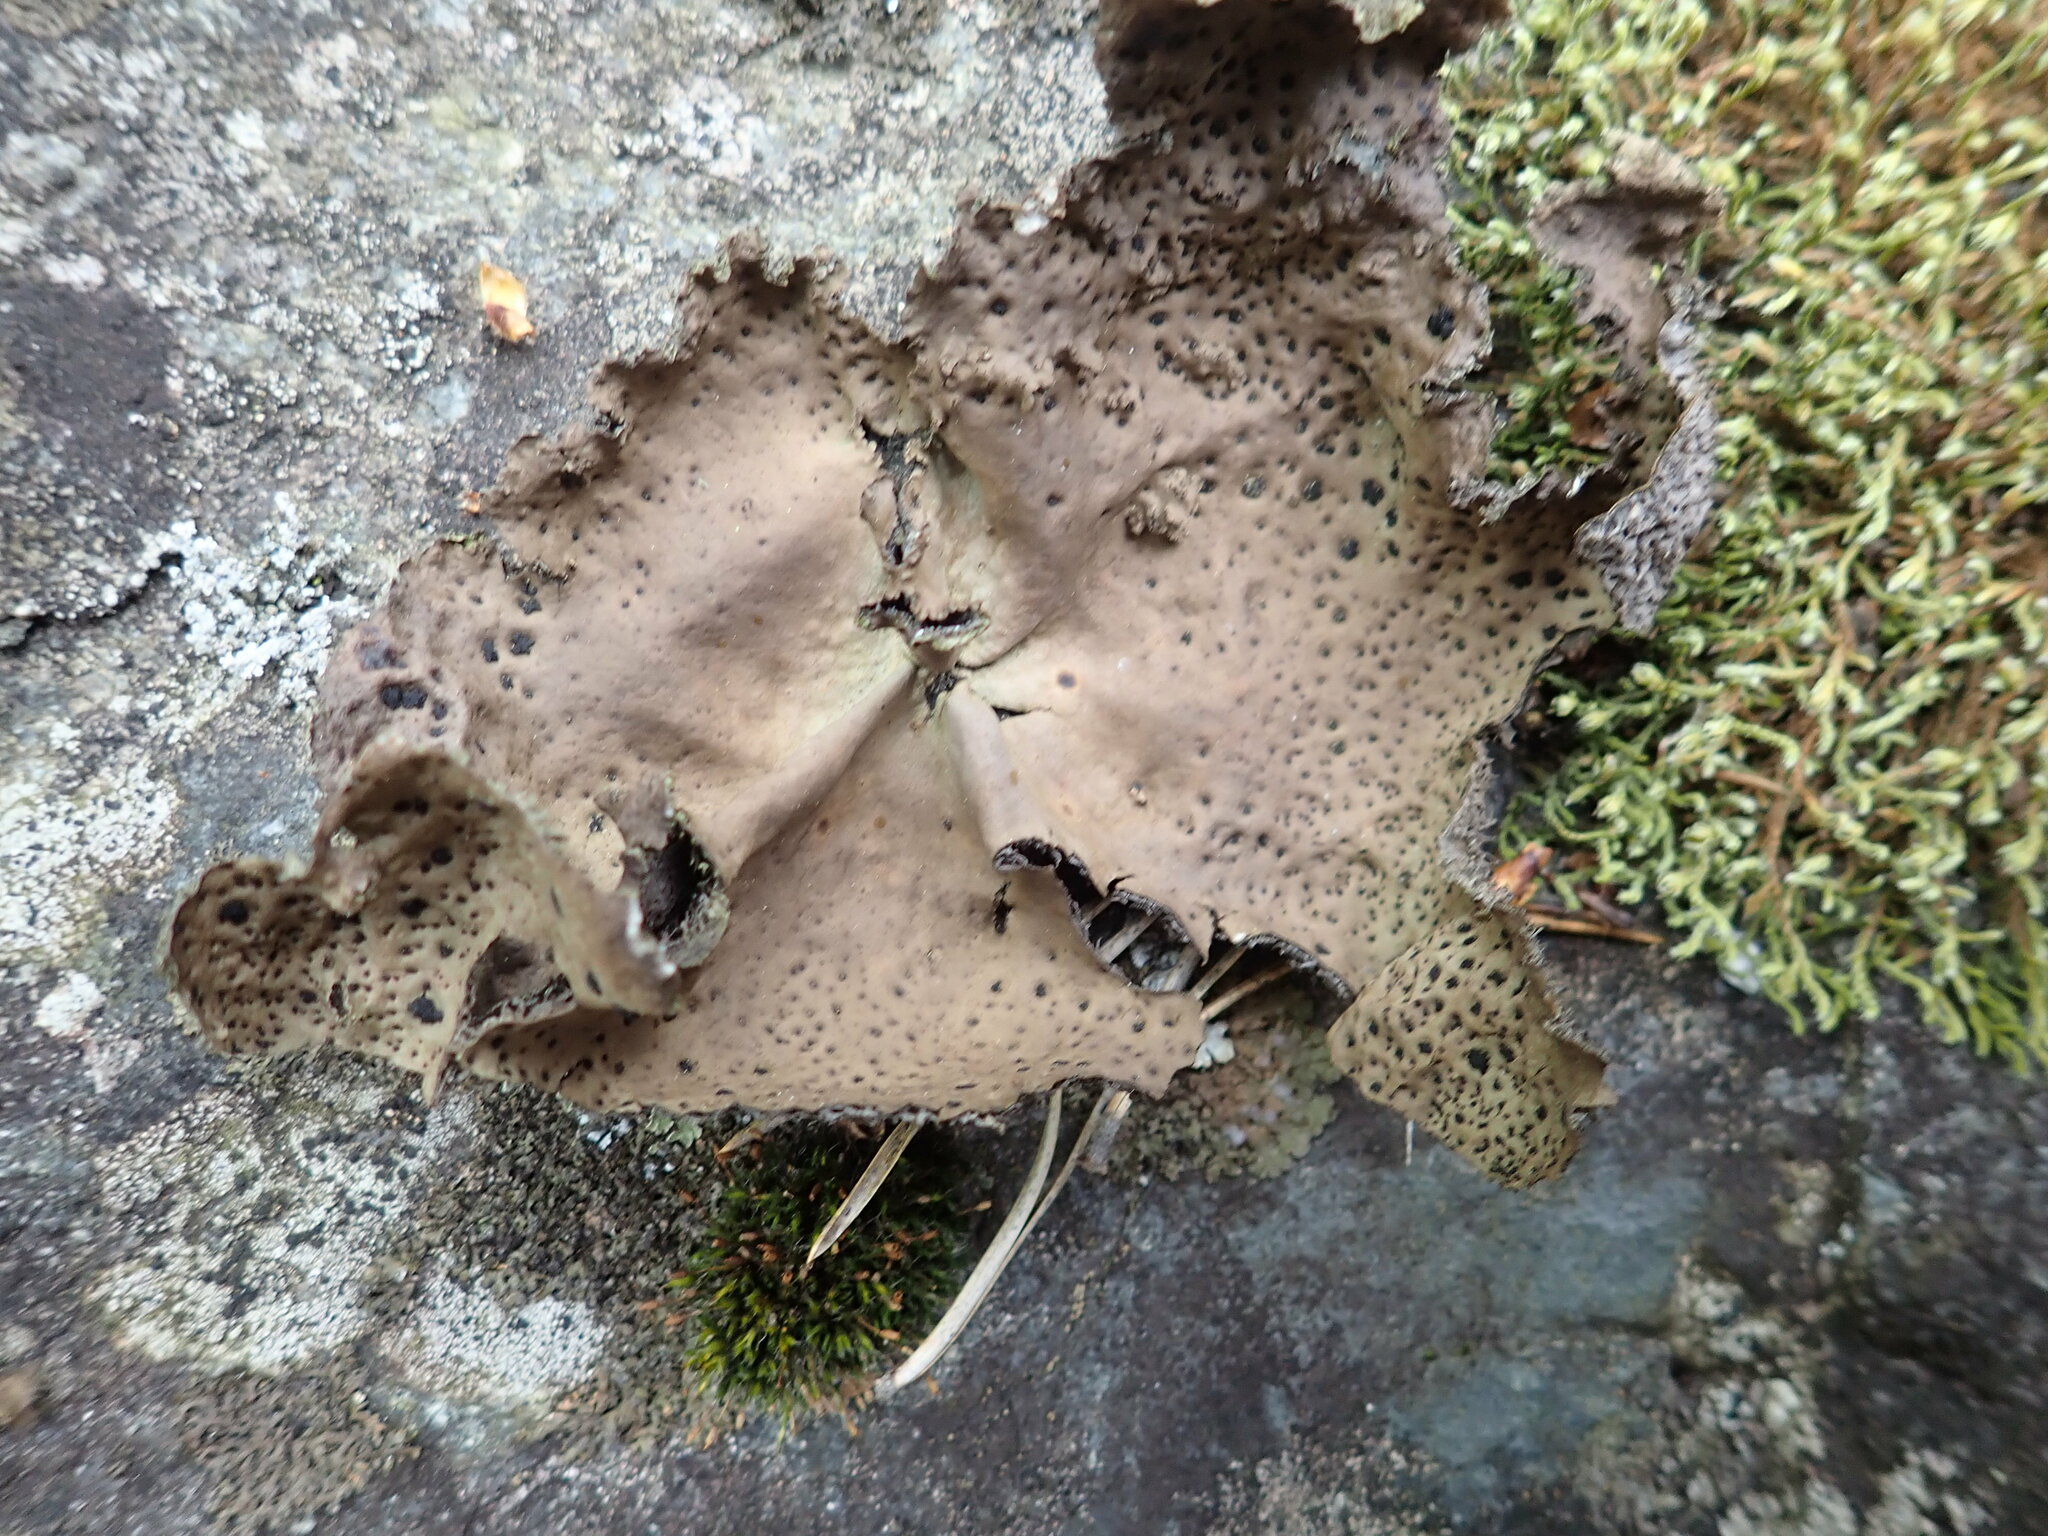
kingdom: Fungi
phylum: Ascomycota
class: Lecanoromycetes
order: Umbilicariales
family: Umbilicariaceae
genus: Umbilicaria
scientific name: Umbilicaria muhlenbergii
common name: Lesser rocktripe
